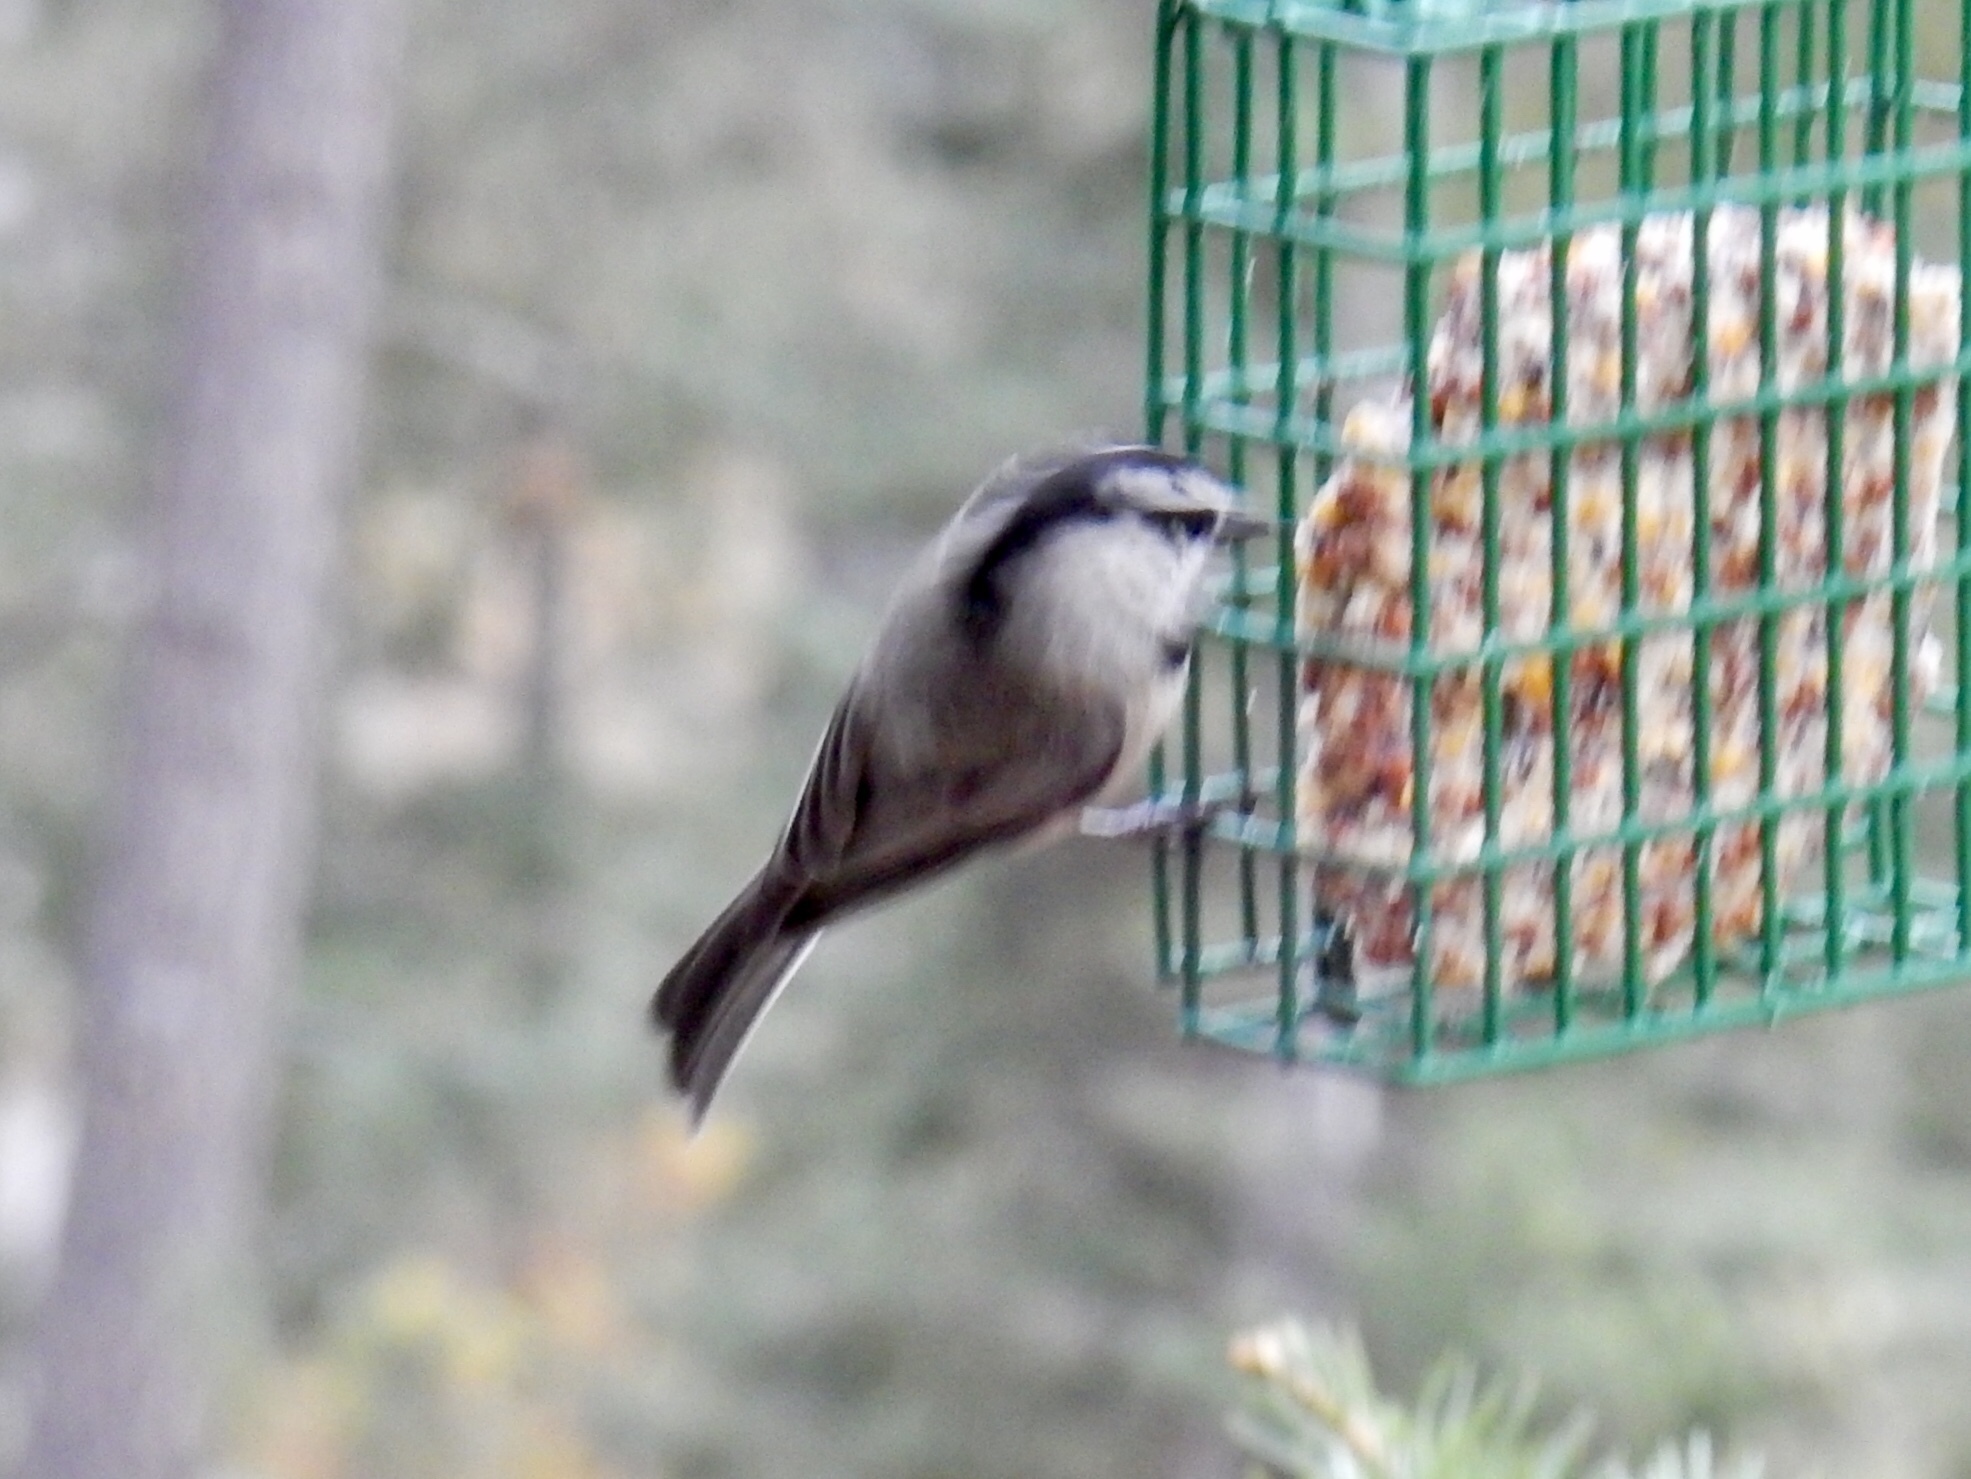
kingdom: Animalia
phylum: Chordata
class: Aves
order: Passeriformes
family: Paridae
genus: Poecile
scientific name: Poecile gambeli
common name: Mountain chickadee
